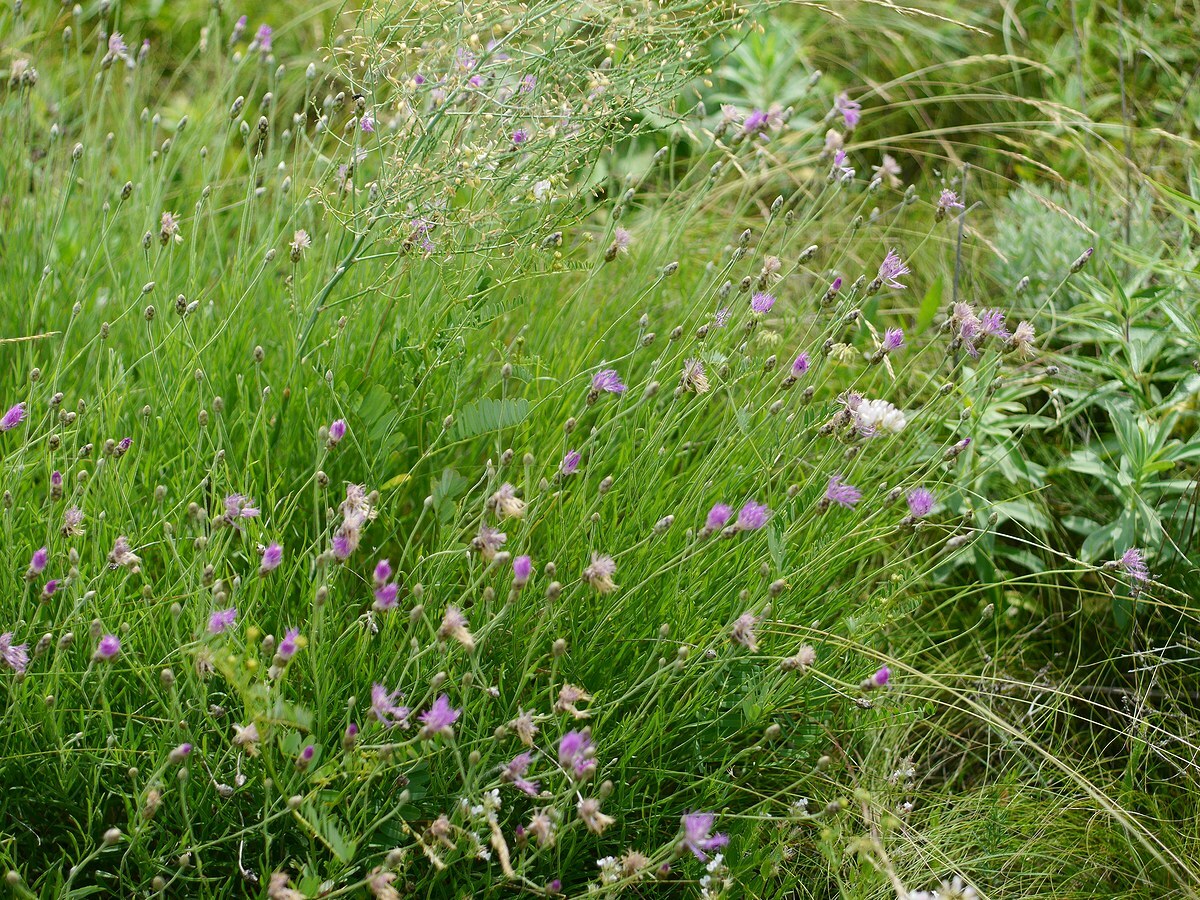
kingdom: Plantae
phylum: Tracheophyta
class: Magnoliopsida
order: Asterales
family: Asteraceae
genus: Psephellus
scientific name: Psephellus trinervius
